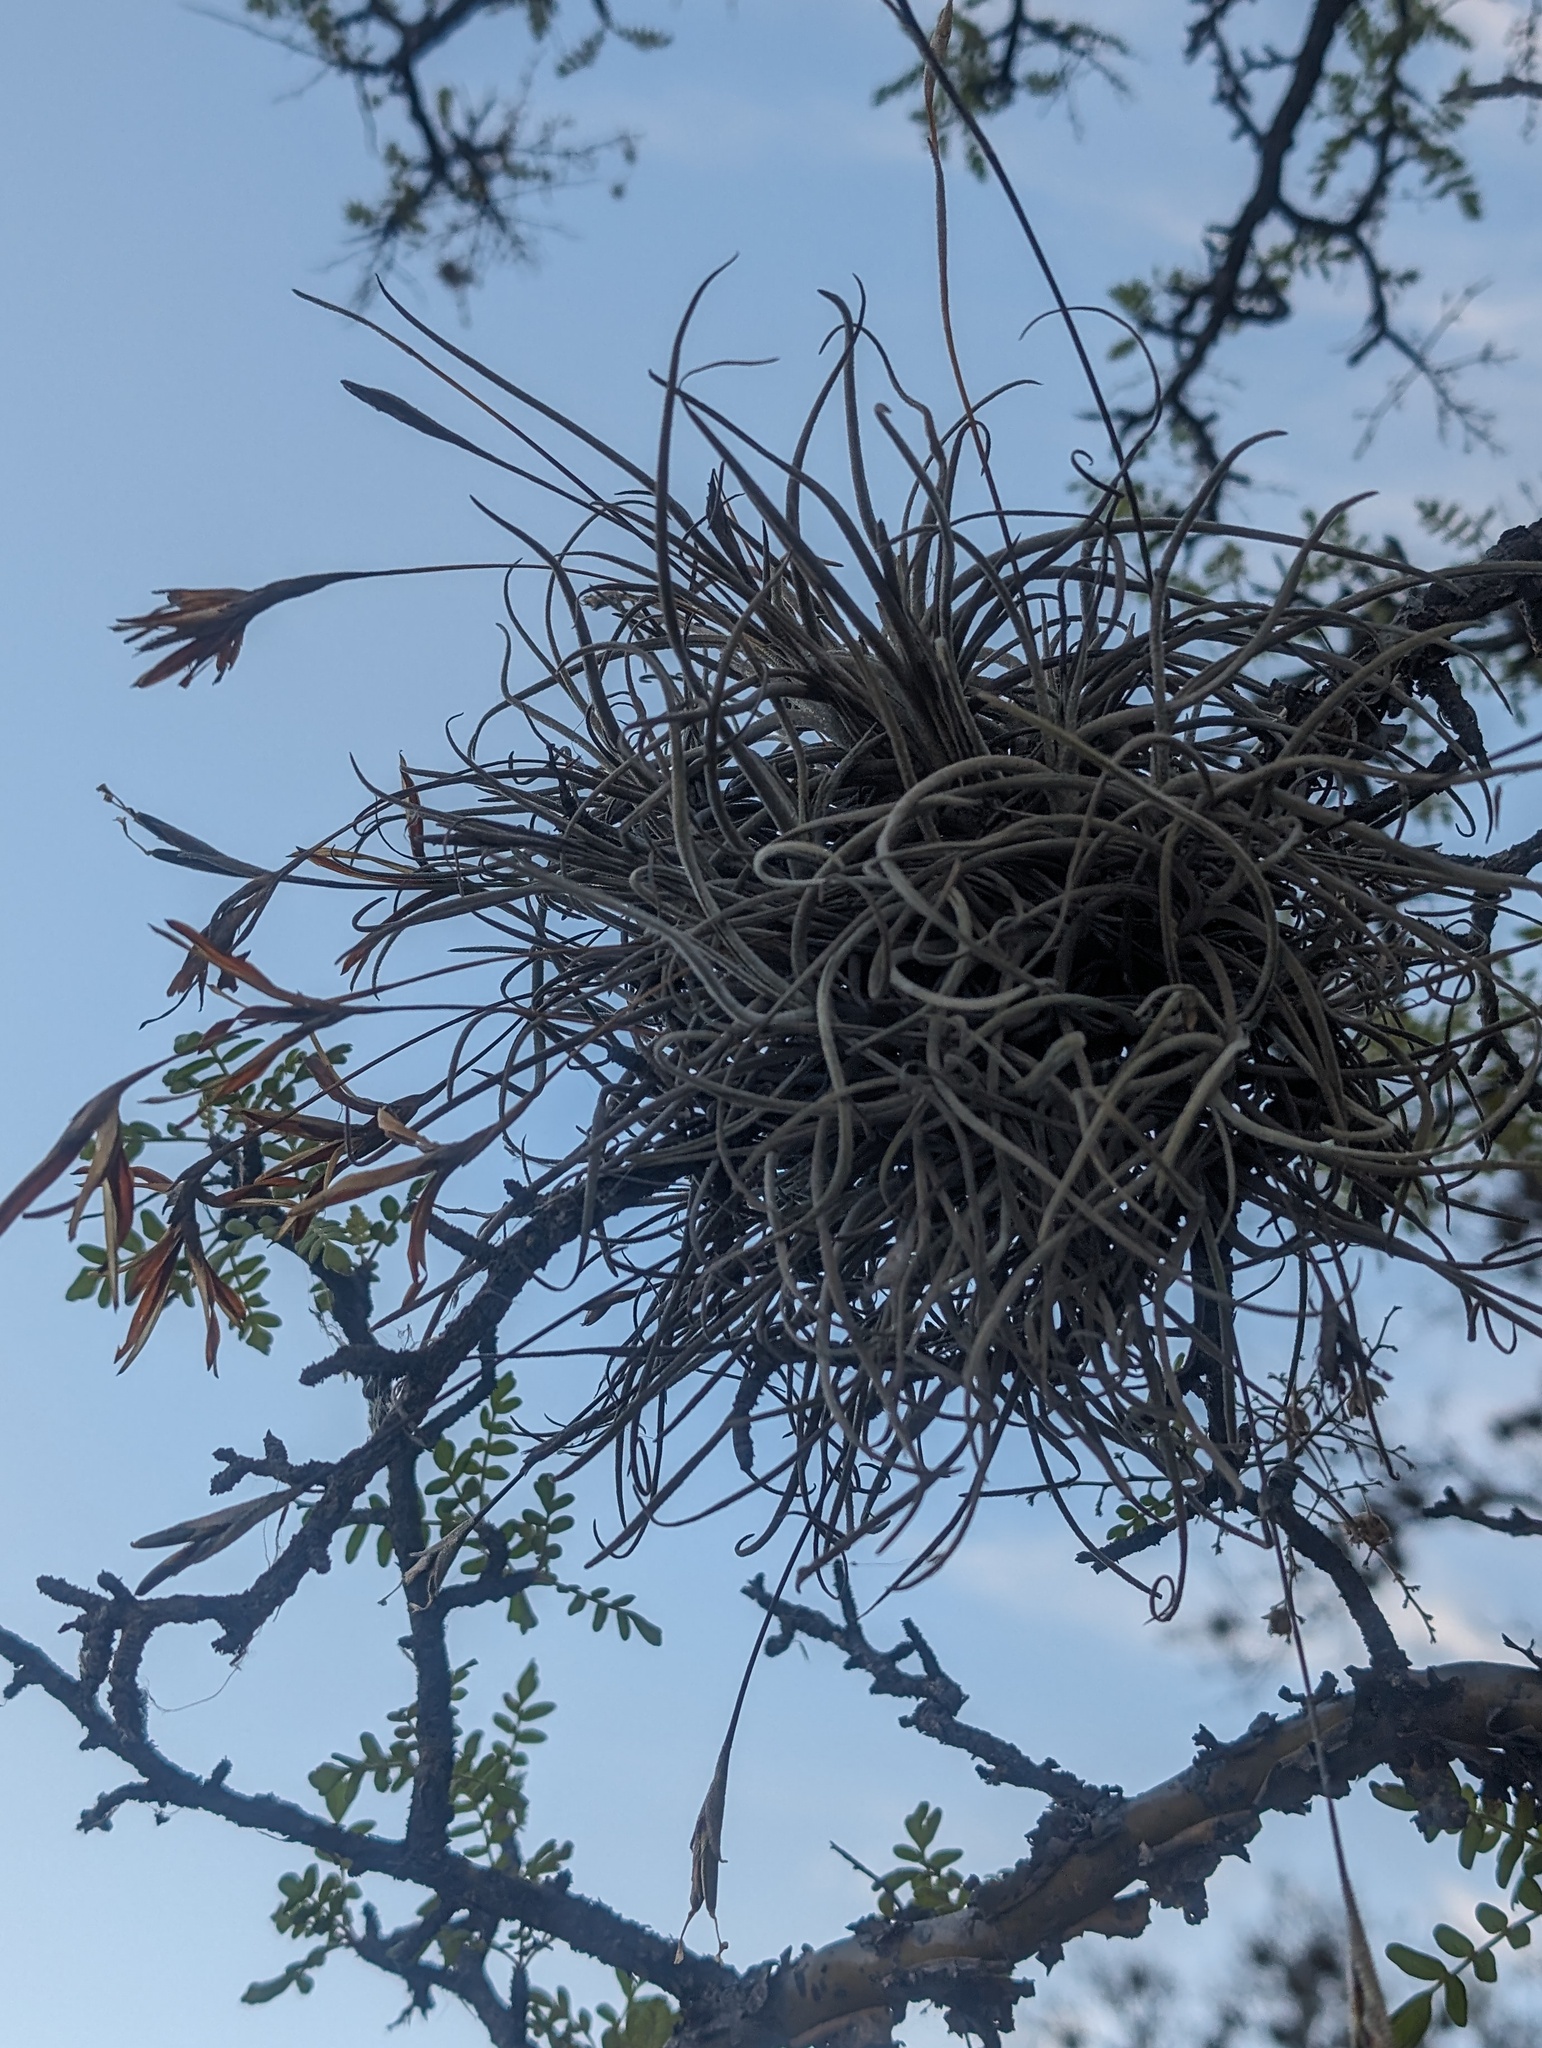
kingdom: Plantae
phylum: Tracheophyta
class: Liliopsida
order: Poales
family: Bromeliaceae
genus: Tillandsia
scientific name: Tillandsia recurvata
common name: Small ballmoss
